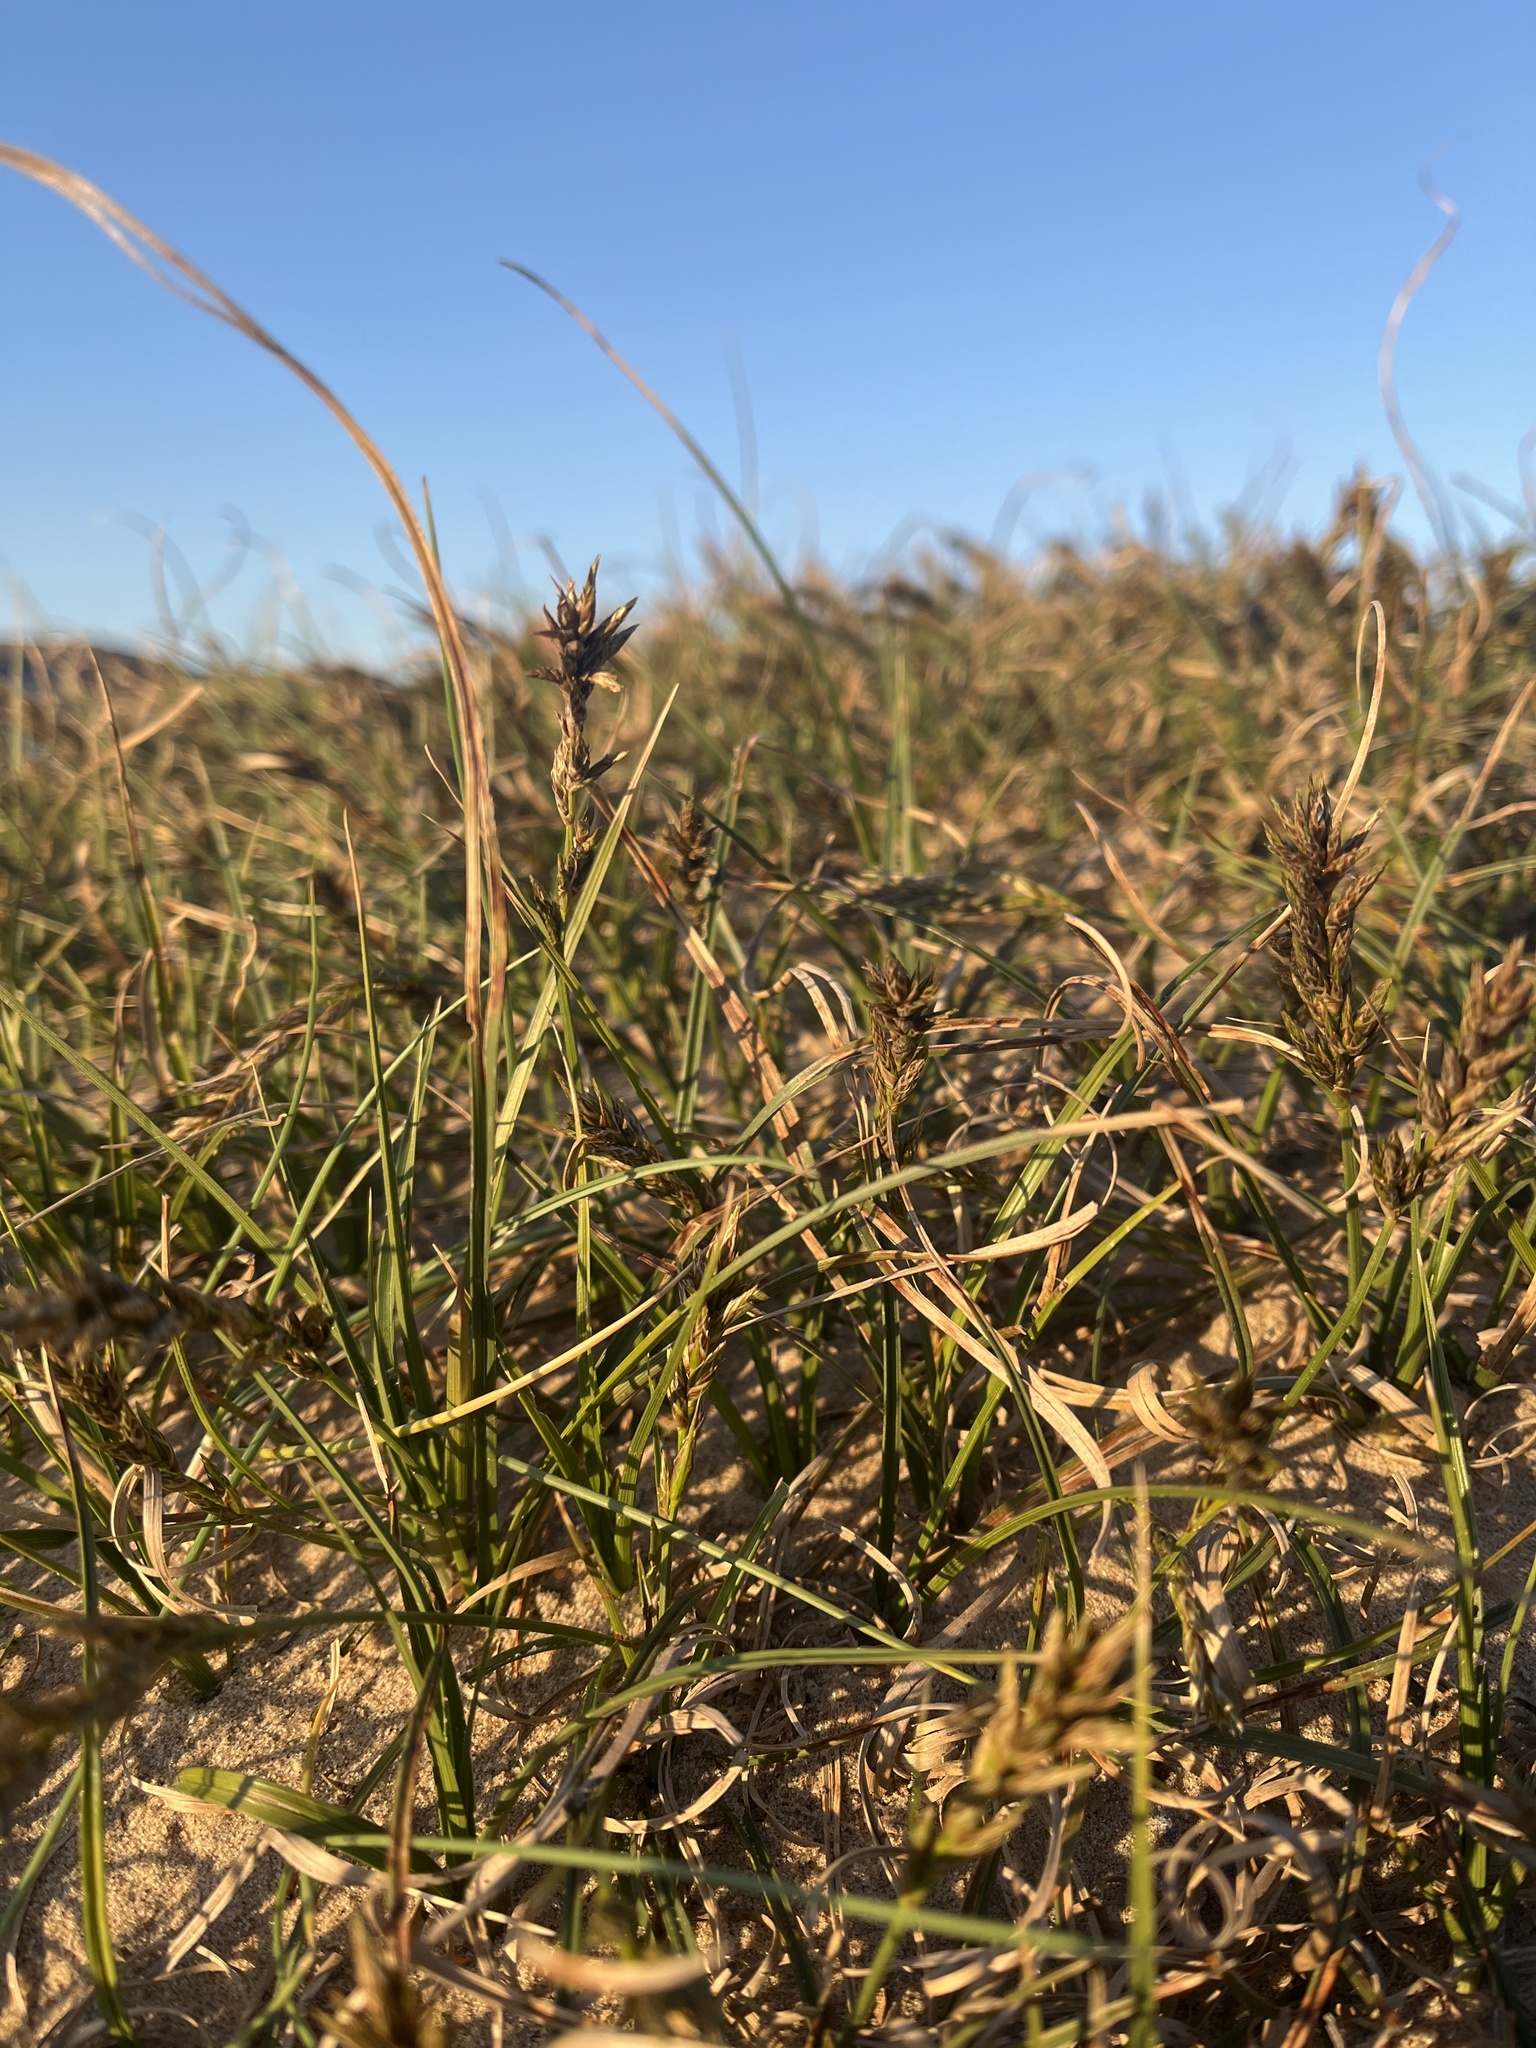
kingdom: Plantae
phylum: Tracheophyta
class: Liliopsida
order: Poales
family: Cyperaceae
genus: Carex
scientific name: Carex arenaria
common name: Sand sedge
